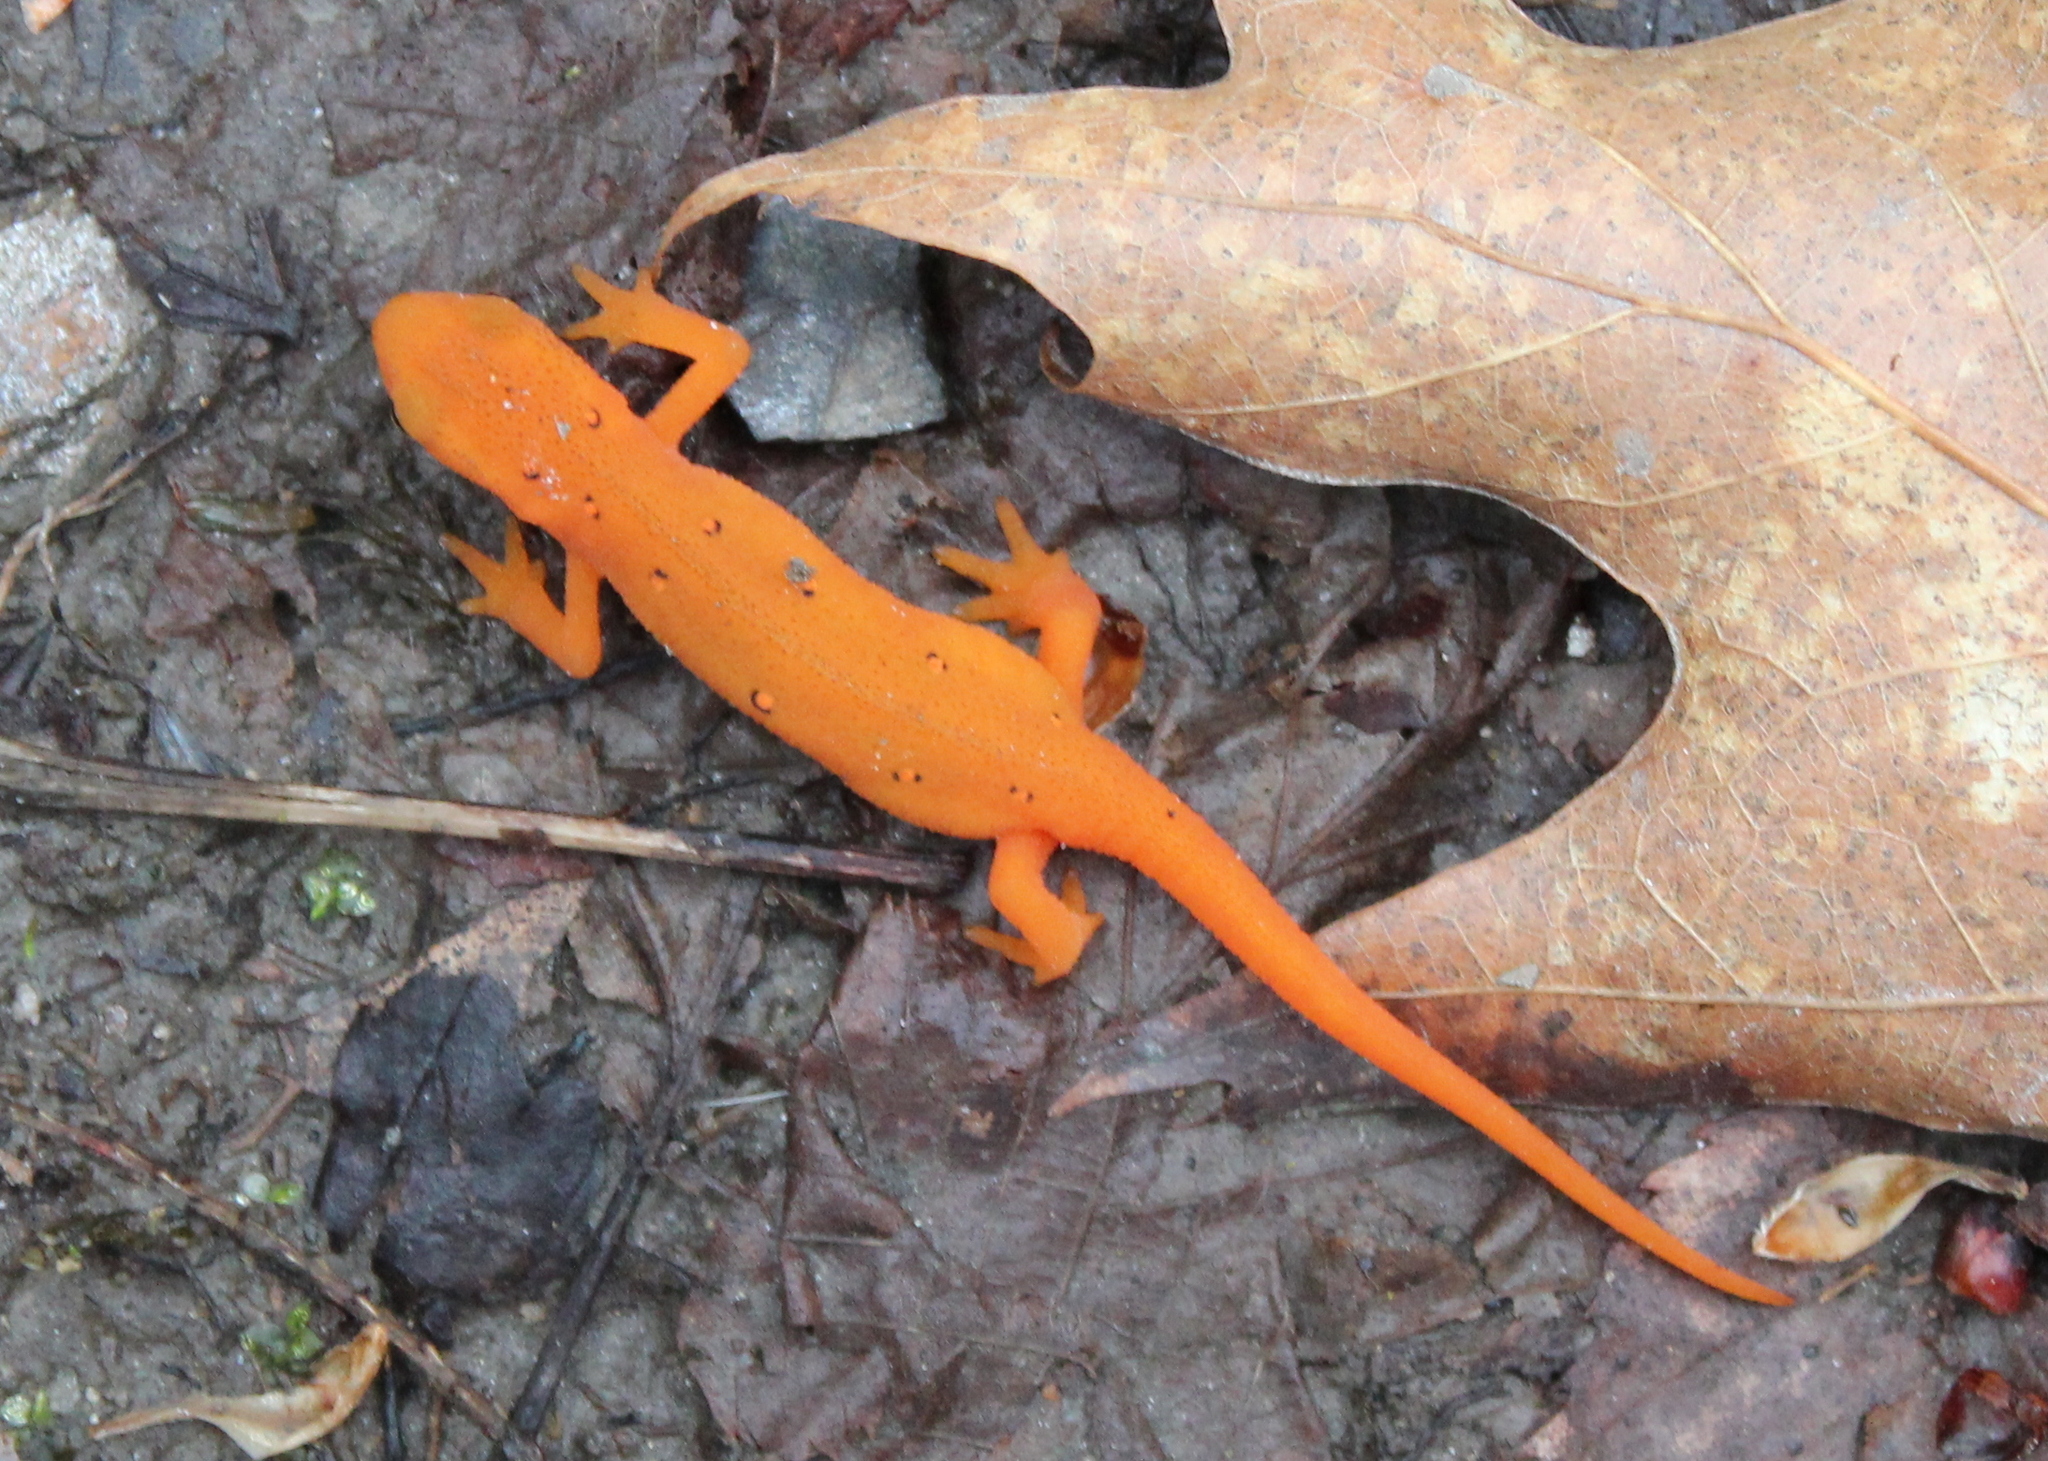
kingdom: Animalia
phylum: Chordata
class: Amphibia
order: Caudata
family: Salamandridae
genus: Notophthalmus
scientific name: Notophthalmus viridescens
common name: Eastern newt
